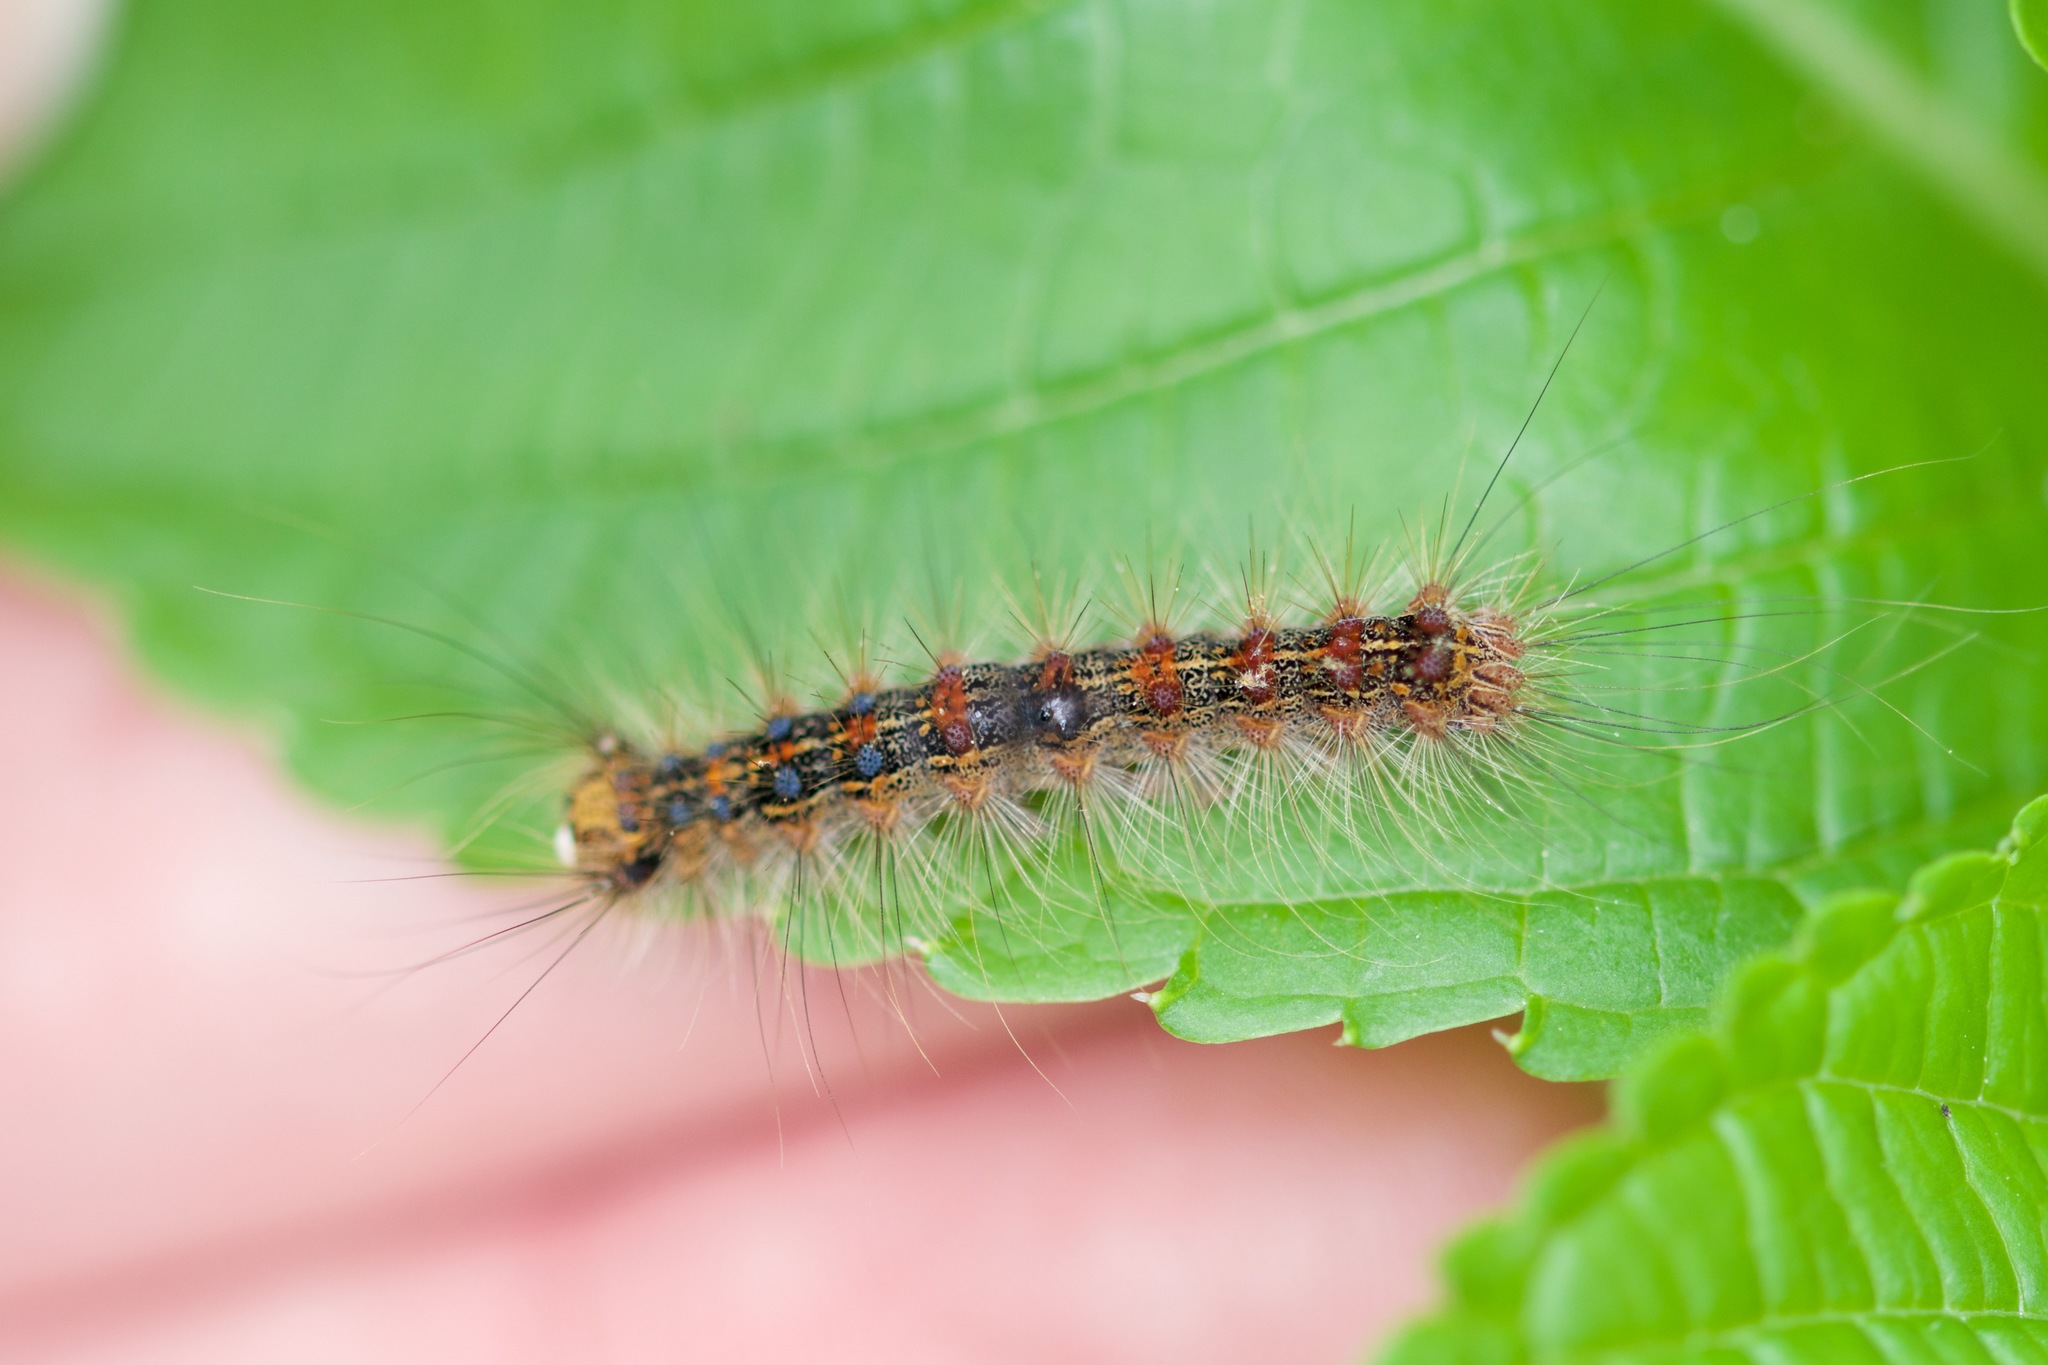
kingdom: Animalia
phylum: Arthropoda
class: Insecta
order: Lepidoptera
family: Erebidae
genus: Lymantria
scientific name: Lymantria dispar
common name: Gypsy moth
